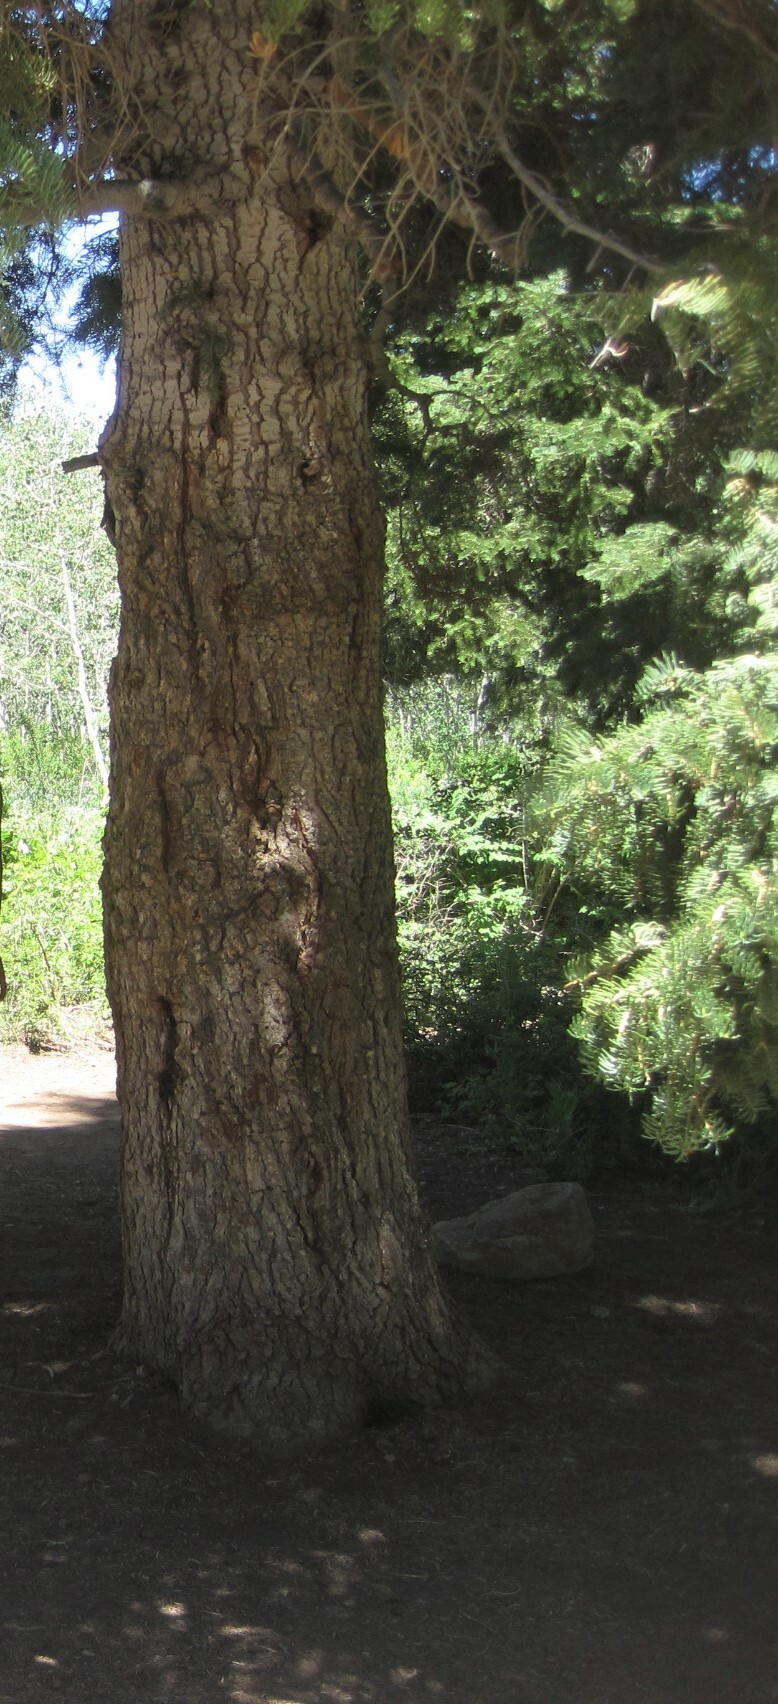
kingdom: Plantae
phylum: Tracheophyta
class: Pinopsida
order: Pinales
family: Pinaceae
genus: Abies
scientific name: Abies concolor
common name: Colorado fir
